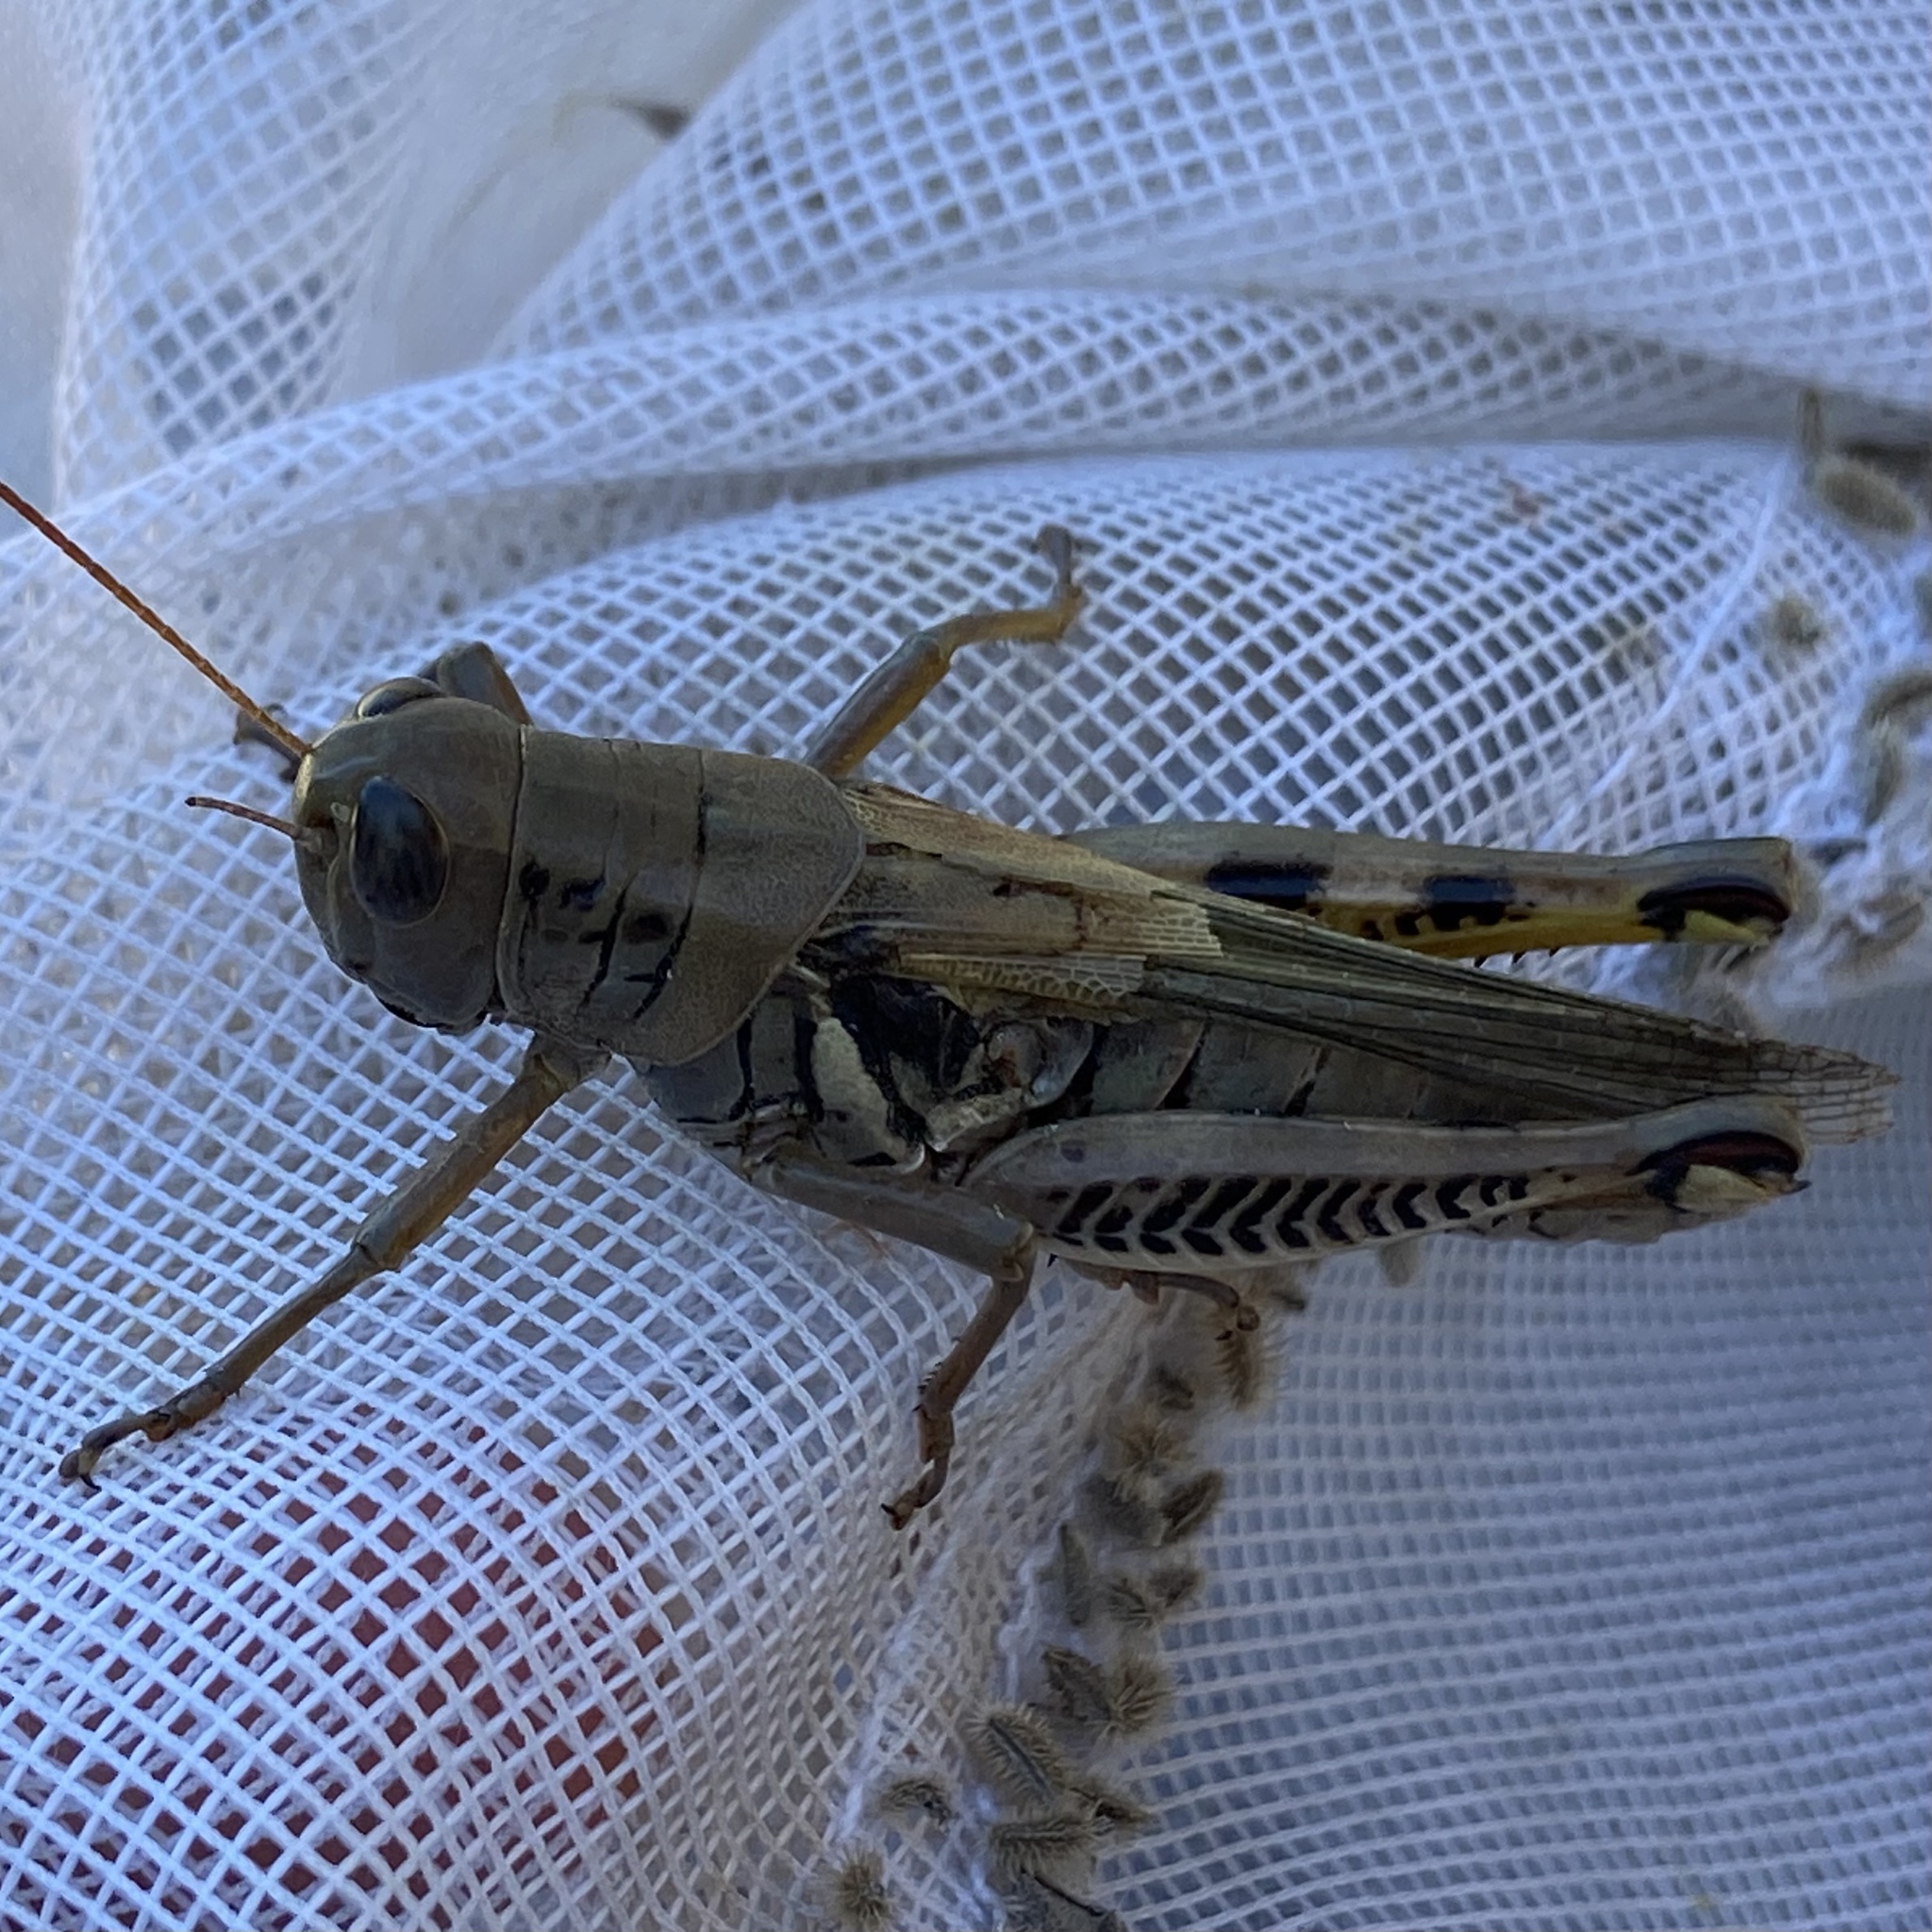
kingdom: Animalia
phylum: Arthropoda
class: Insecta
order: Orthoptera
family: Acrididae
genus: Melanoplus
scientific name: Melanoplus differentialis
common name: Differential grasshopper
